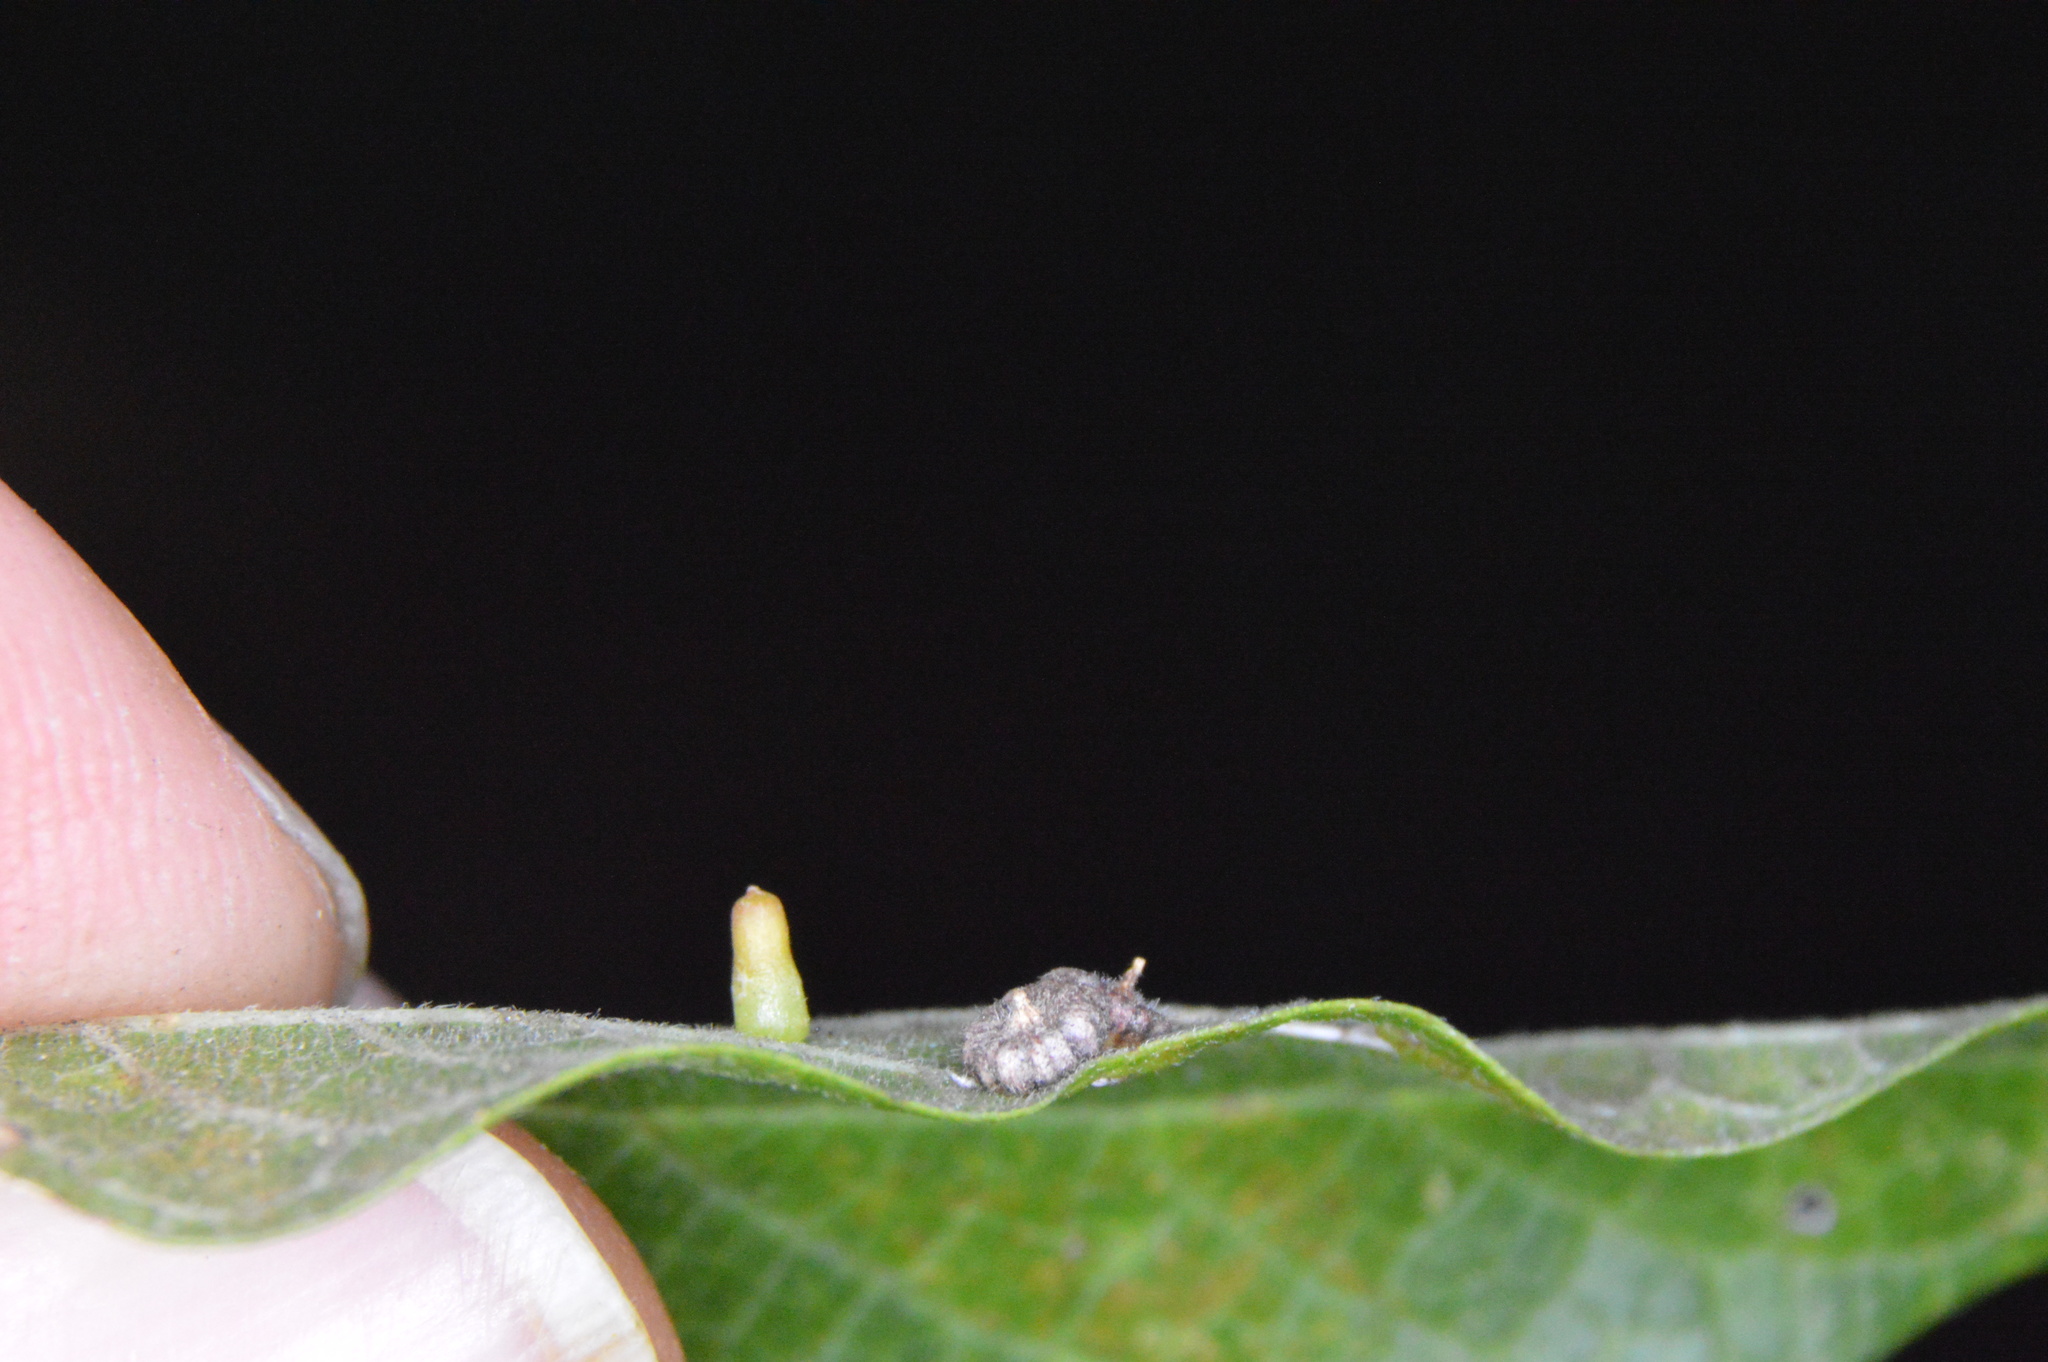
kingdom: Animalia
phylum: Arthropoda
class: Insecta
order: Diptera
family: Cecidomyiidae
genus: Celticecis
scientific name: Celticecis capsularis
